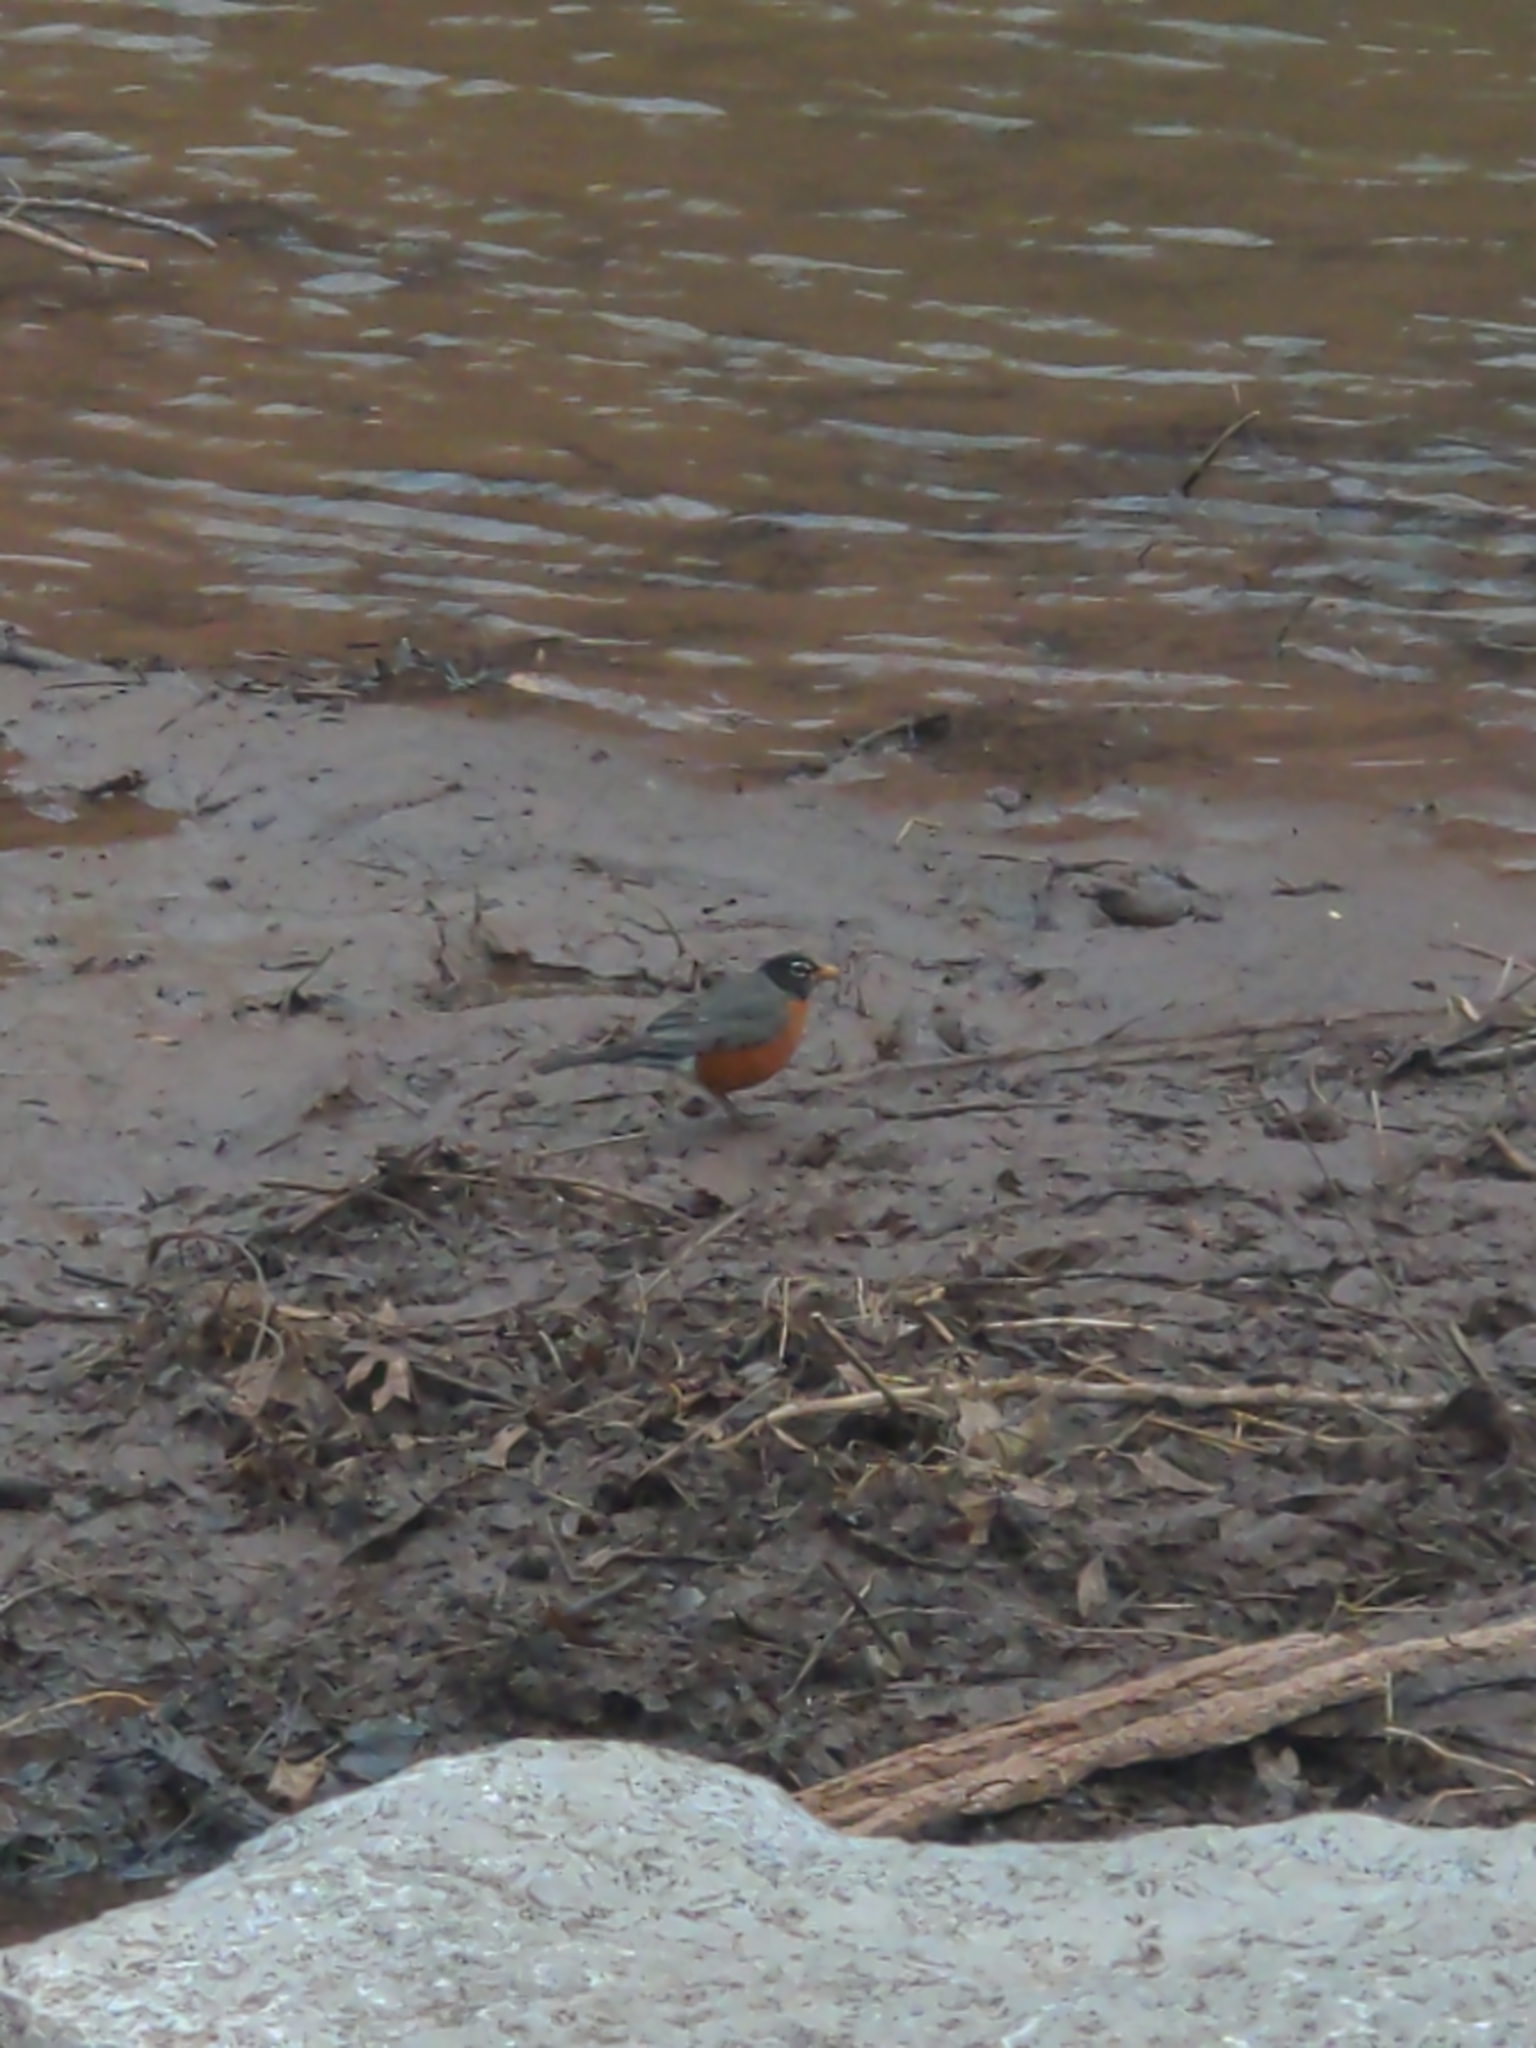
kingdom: Animalia
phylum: Chordata
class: Aves
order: Passeriformes
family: Turdidae
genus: Turdus
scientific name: Turdus migratorius
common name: American robin
